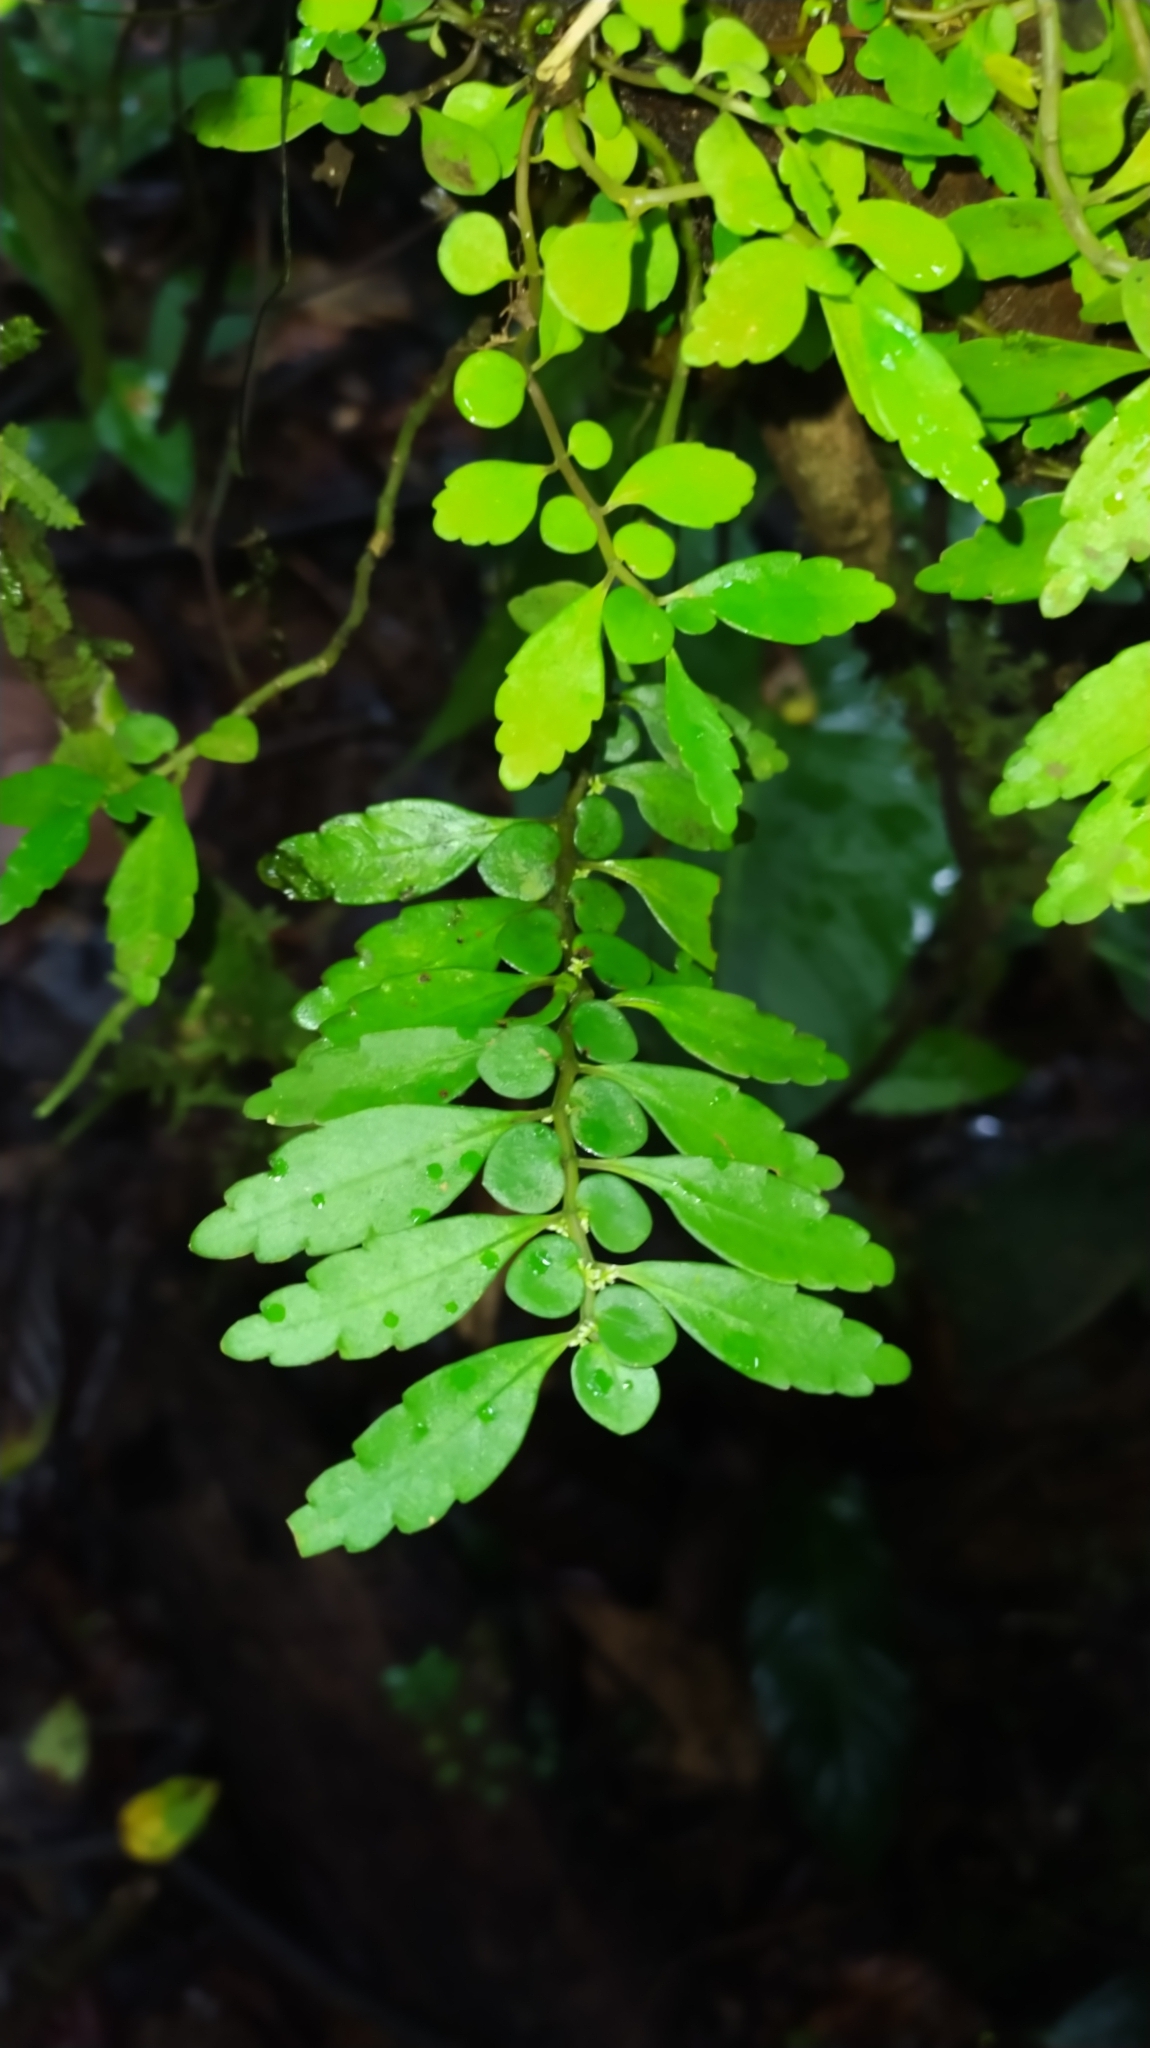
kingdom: Plantae
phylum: Tracheophyta
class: Magnoliopsida
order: Rosales
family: Urticaceae
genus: Pilea
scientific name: Pilea imparifolia
